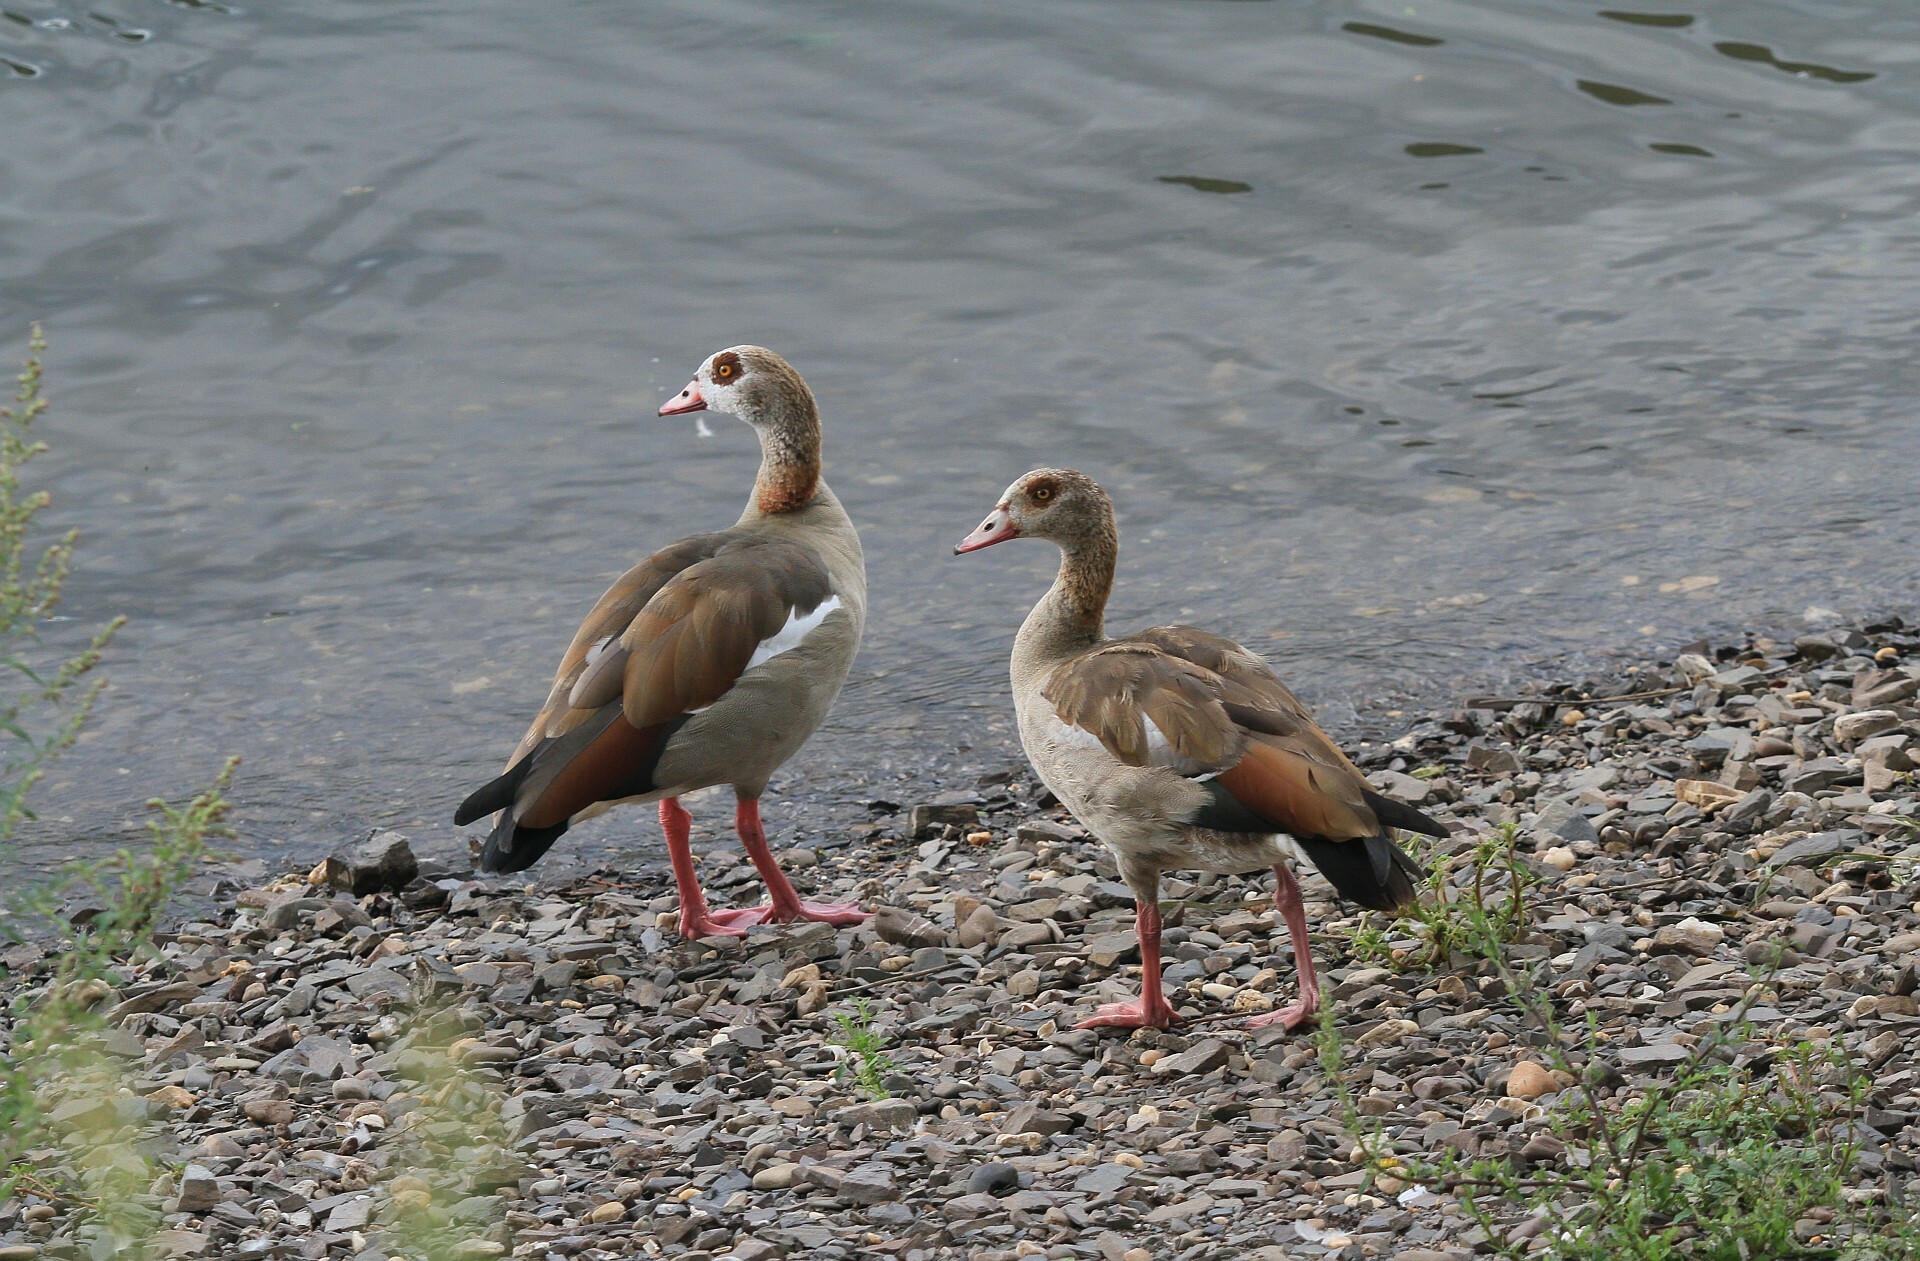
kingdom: Animalia
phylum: Chordata
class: Aves
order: Anseriformes
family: Anatidae
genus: Alopochen
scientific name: Alopochen aegyptiaca
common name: Egyptian goose
